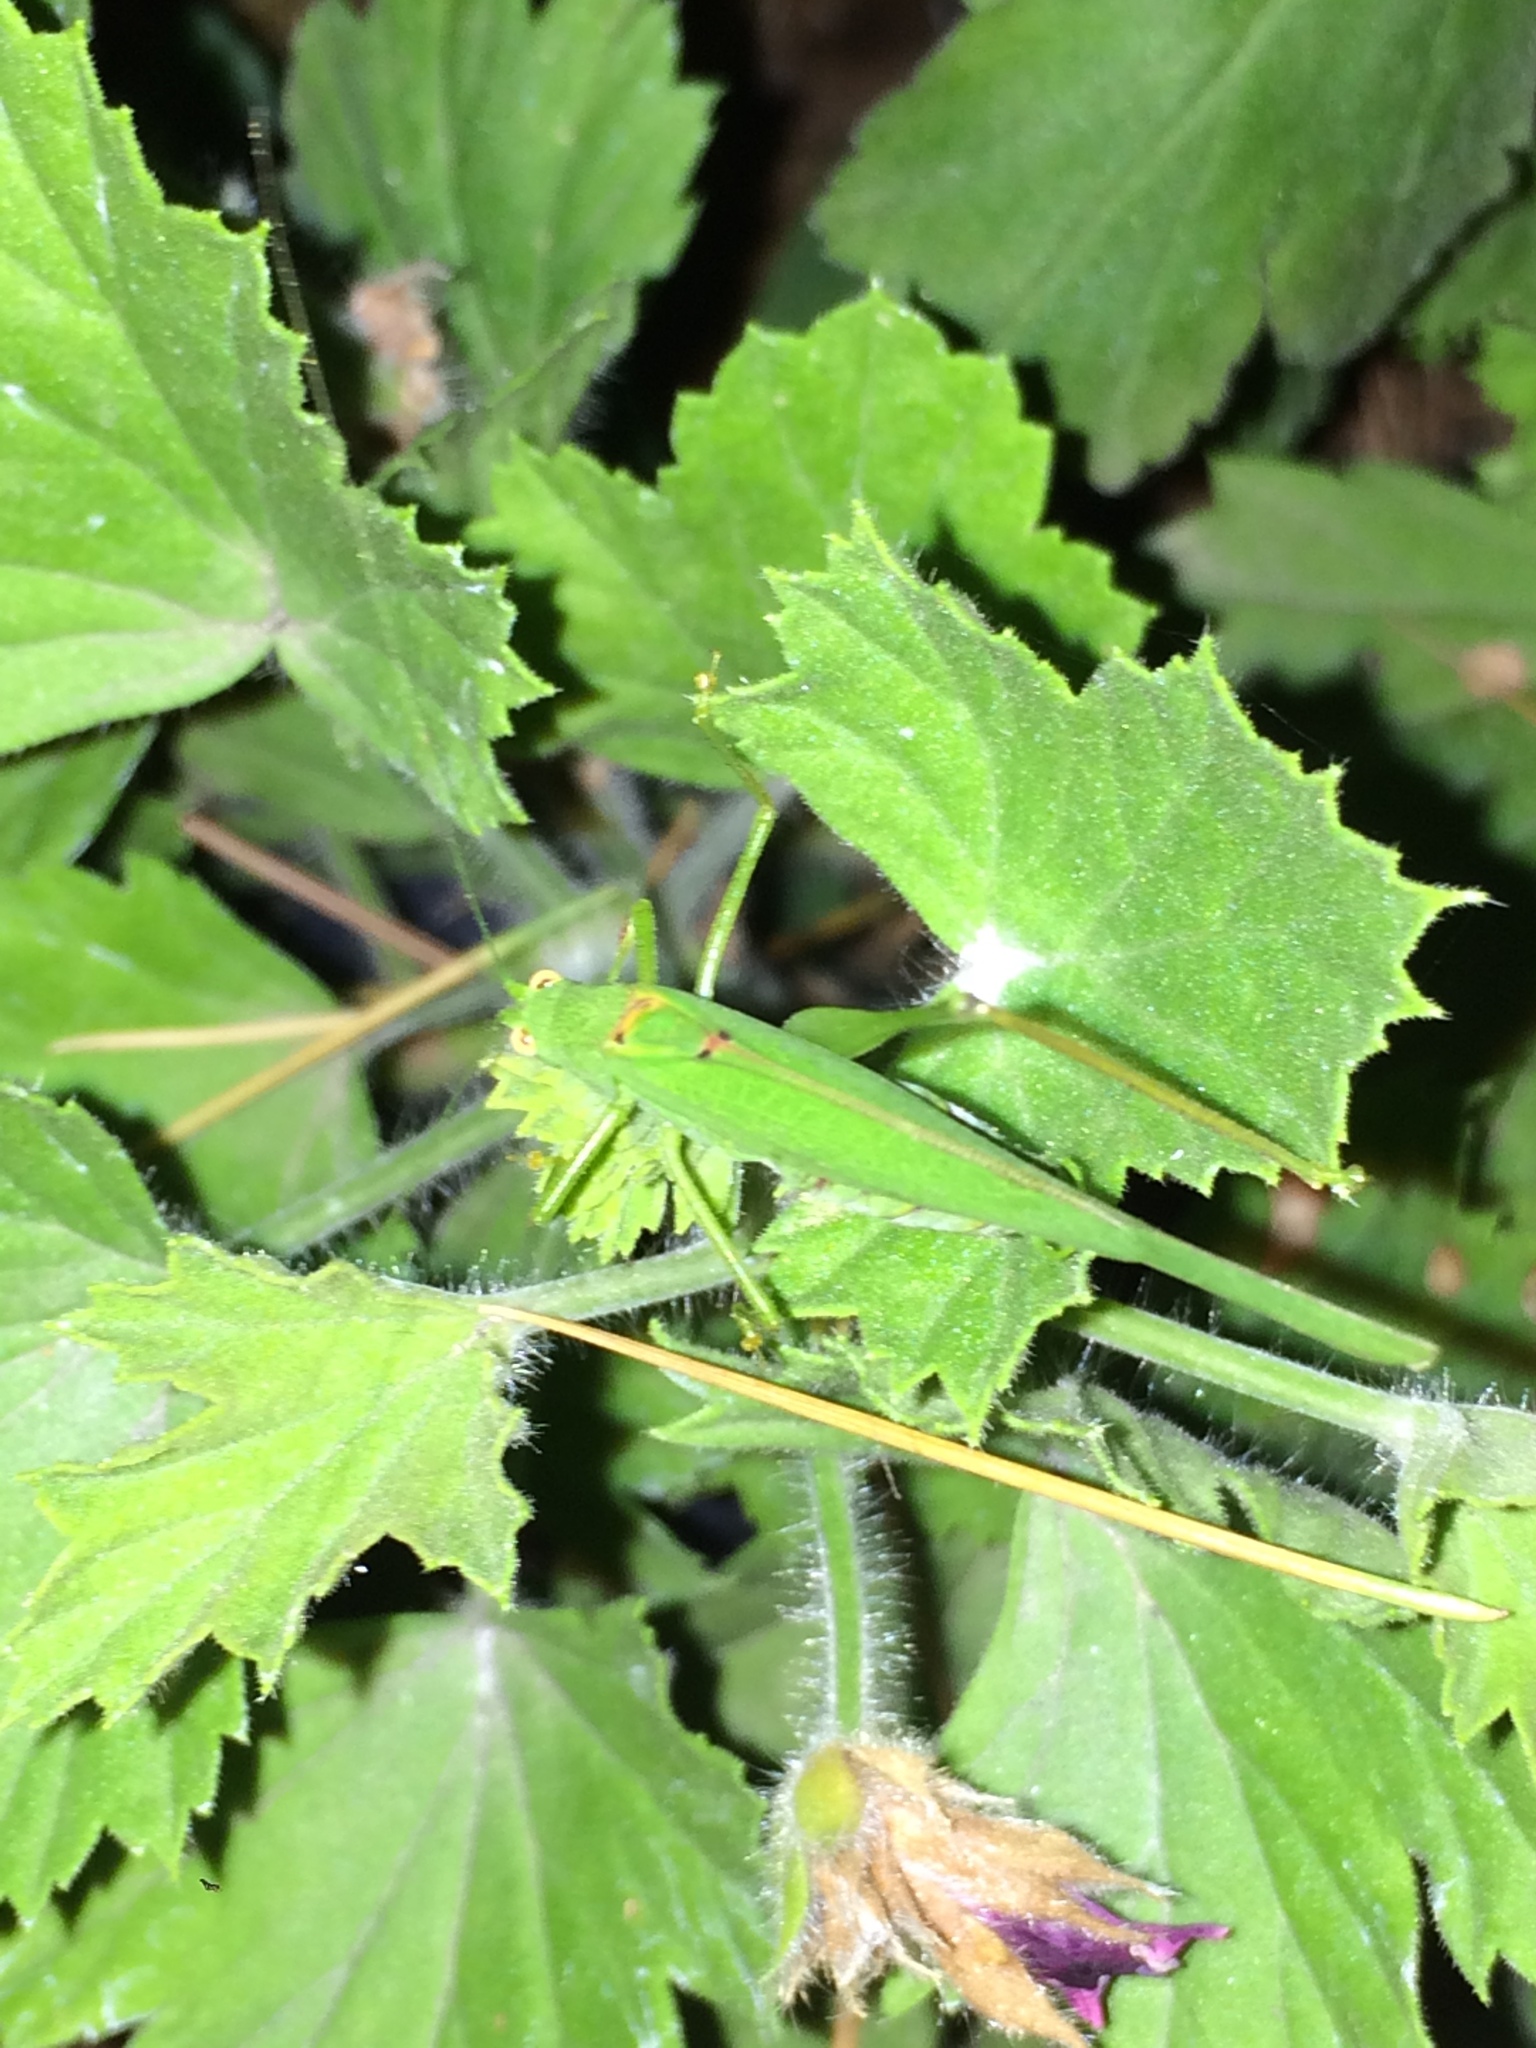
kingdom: Animalia
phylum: Arthropoda
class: Insecta
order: Orthoptera
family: Tettigoniidae
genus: Phaneroptera
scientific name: Phaneroptera nana
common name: Southern sickle bush-cricket
